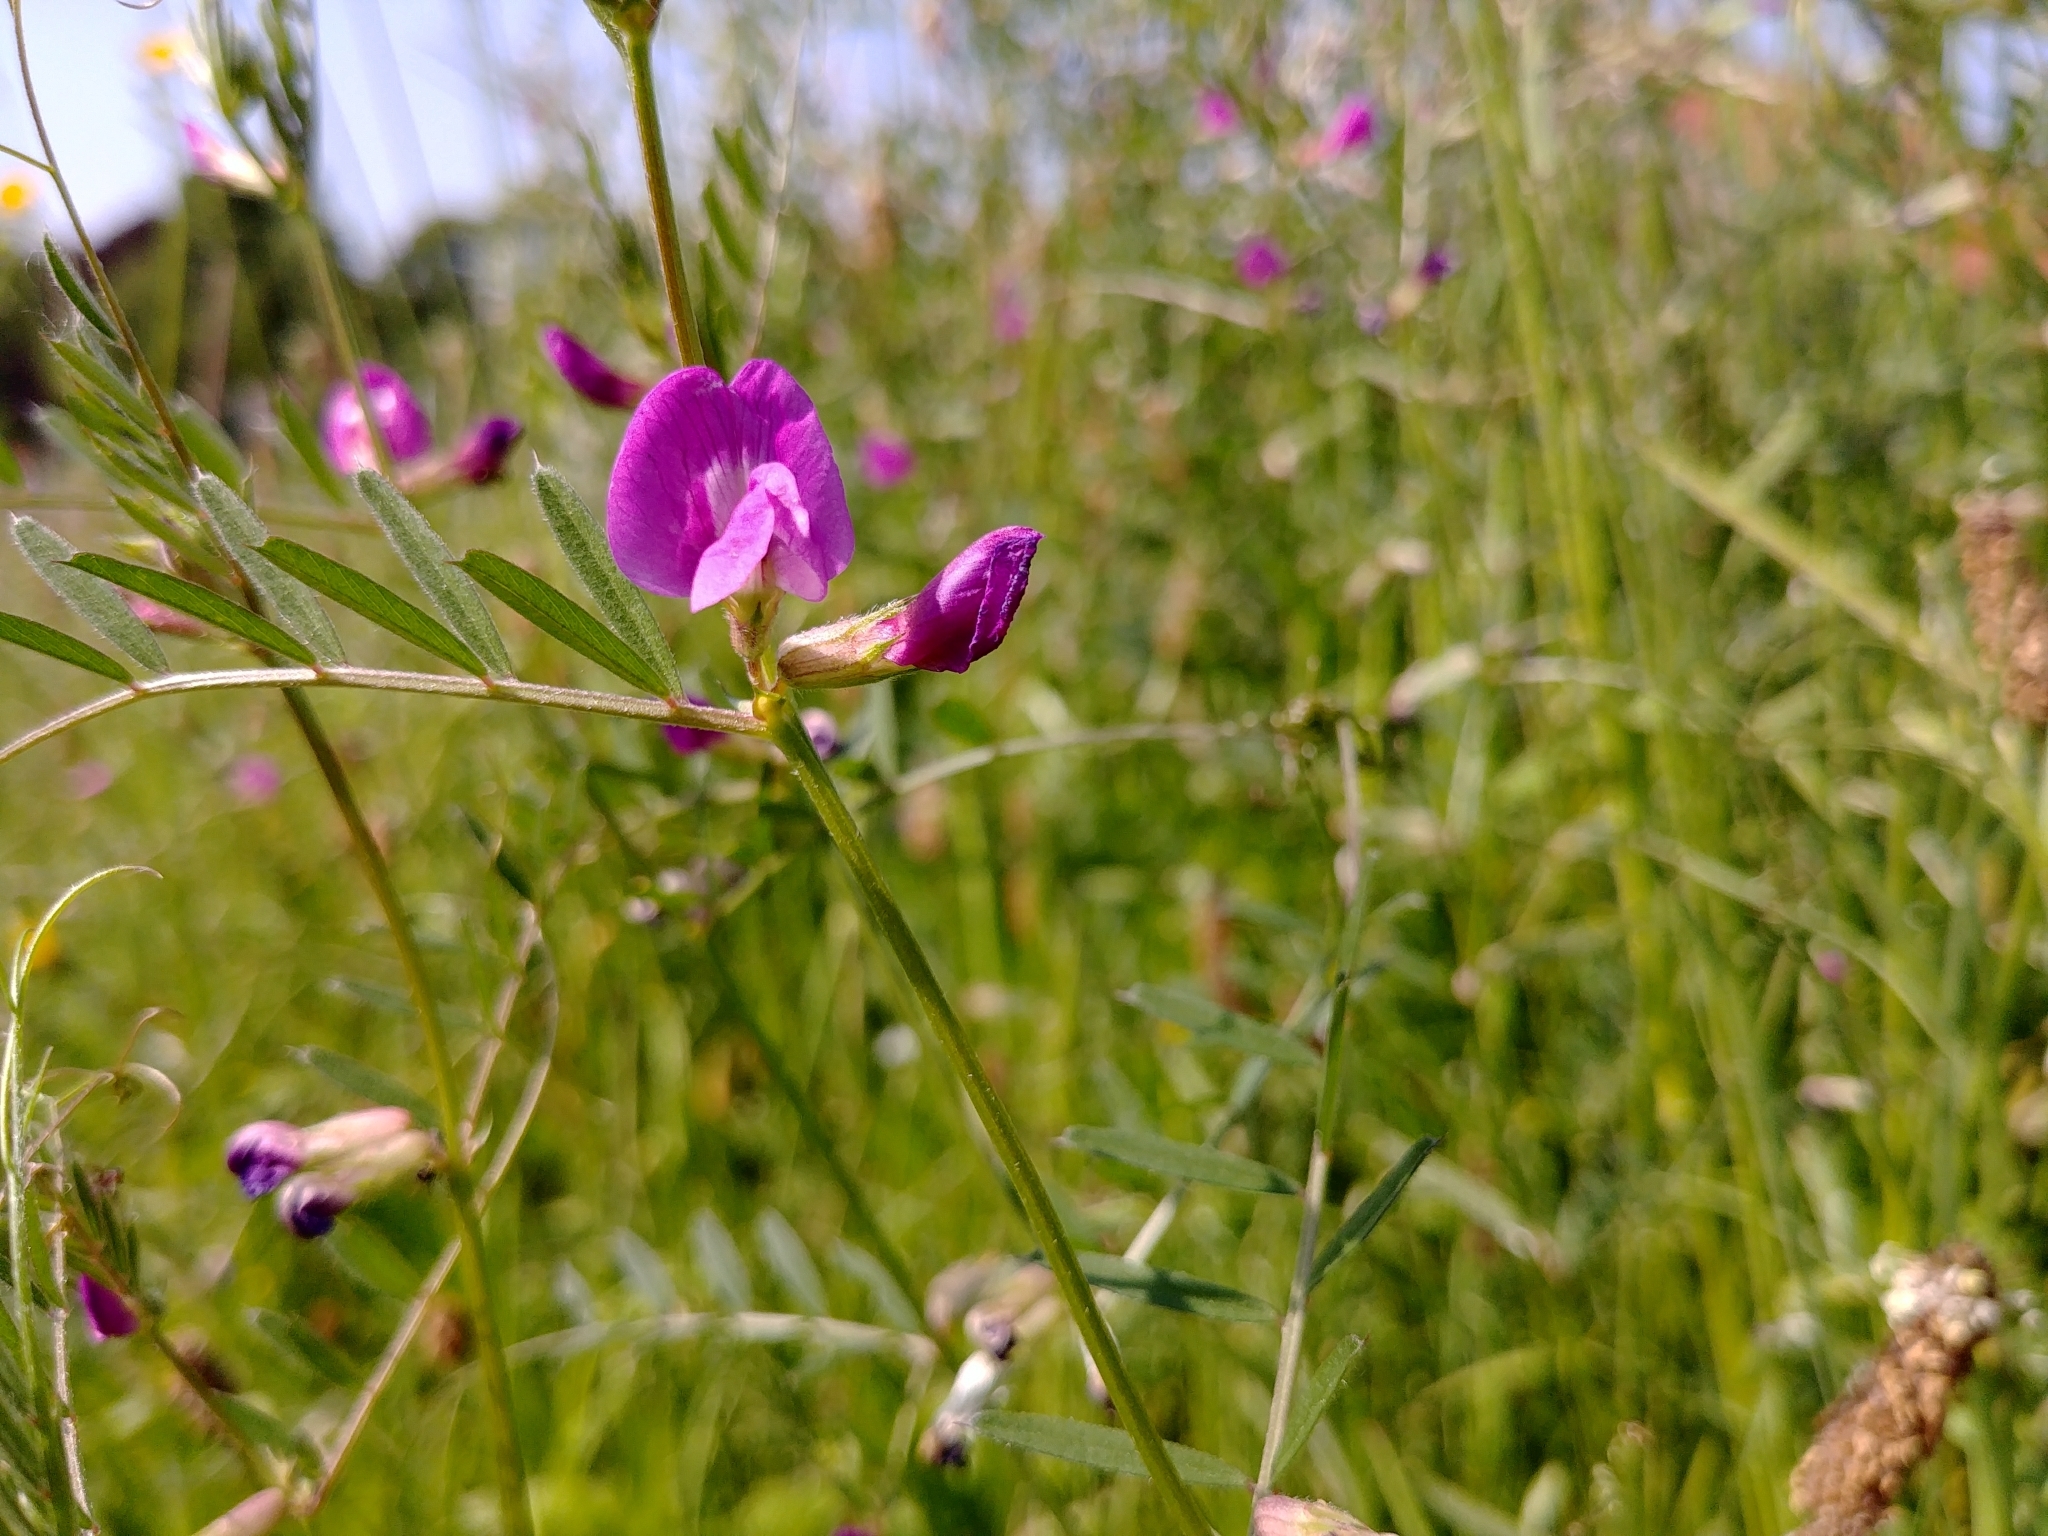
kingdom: Plantae
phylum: Tracheophyta
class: Magnoliopsida
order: Fabales
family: Fabaceae
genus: Vicia
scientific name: Vicia sativa
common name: Garden vetch
